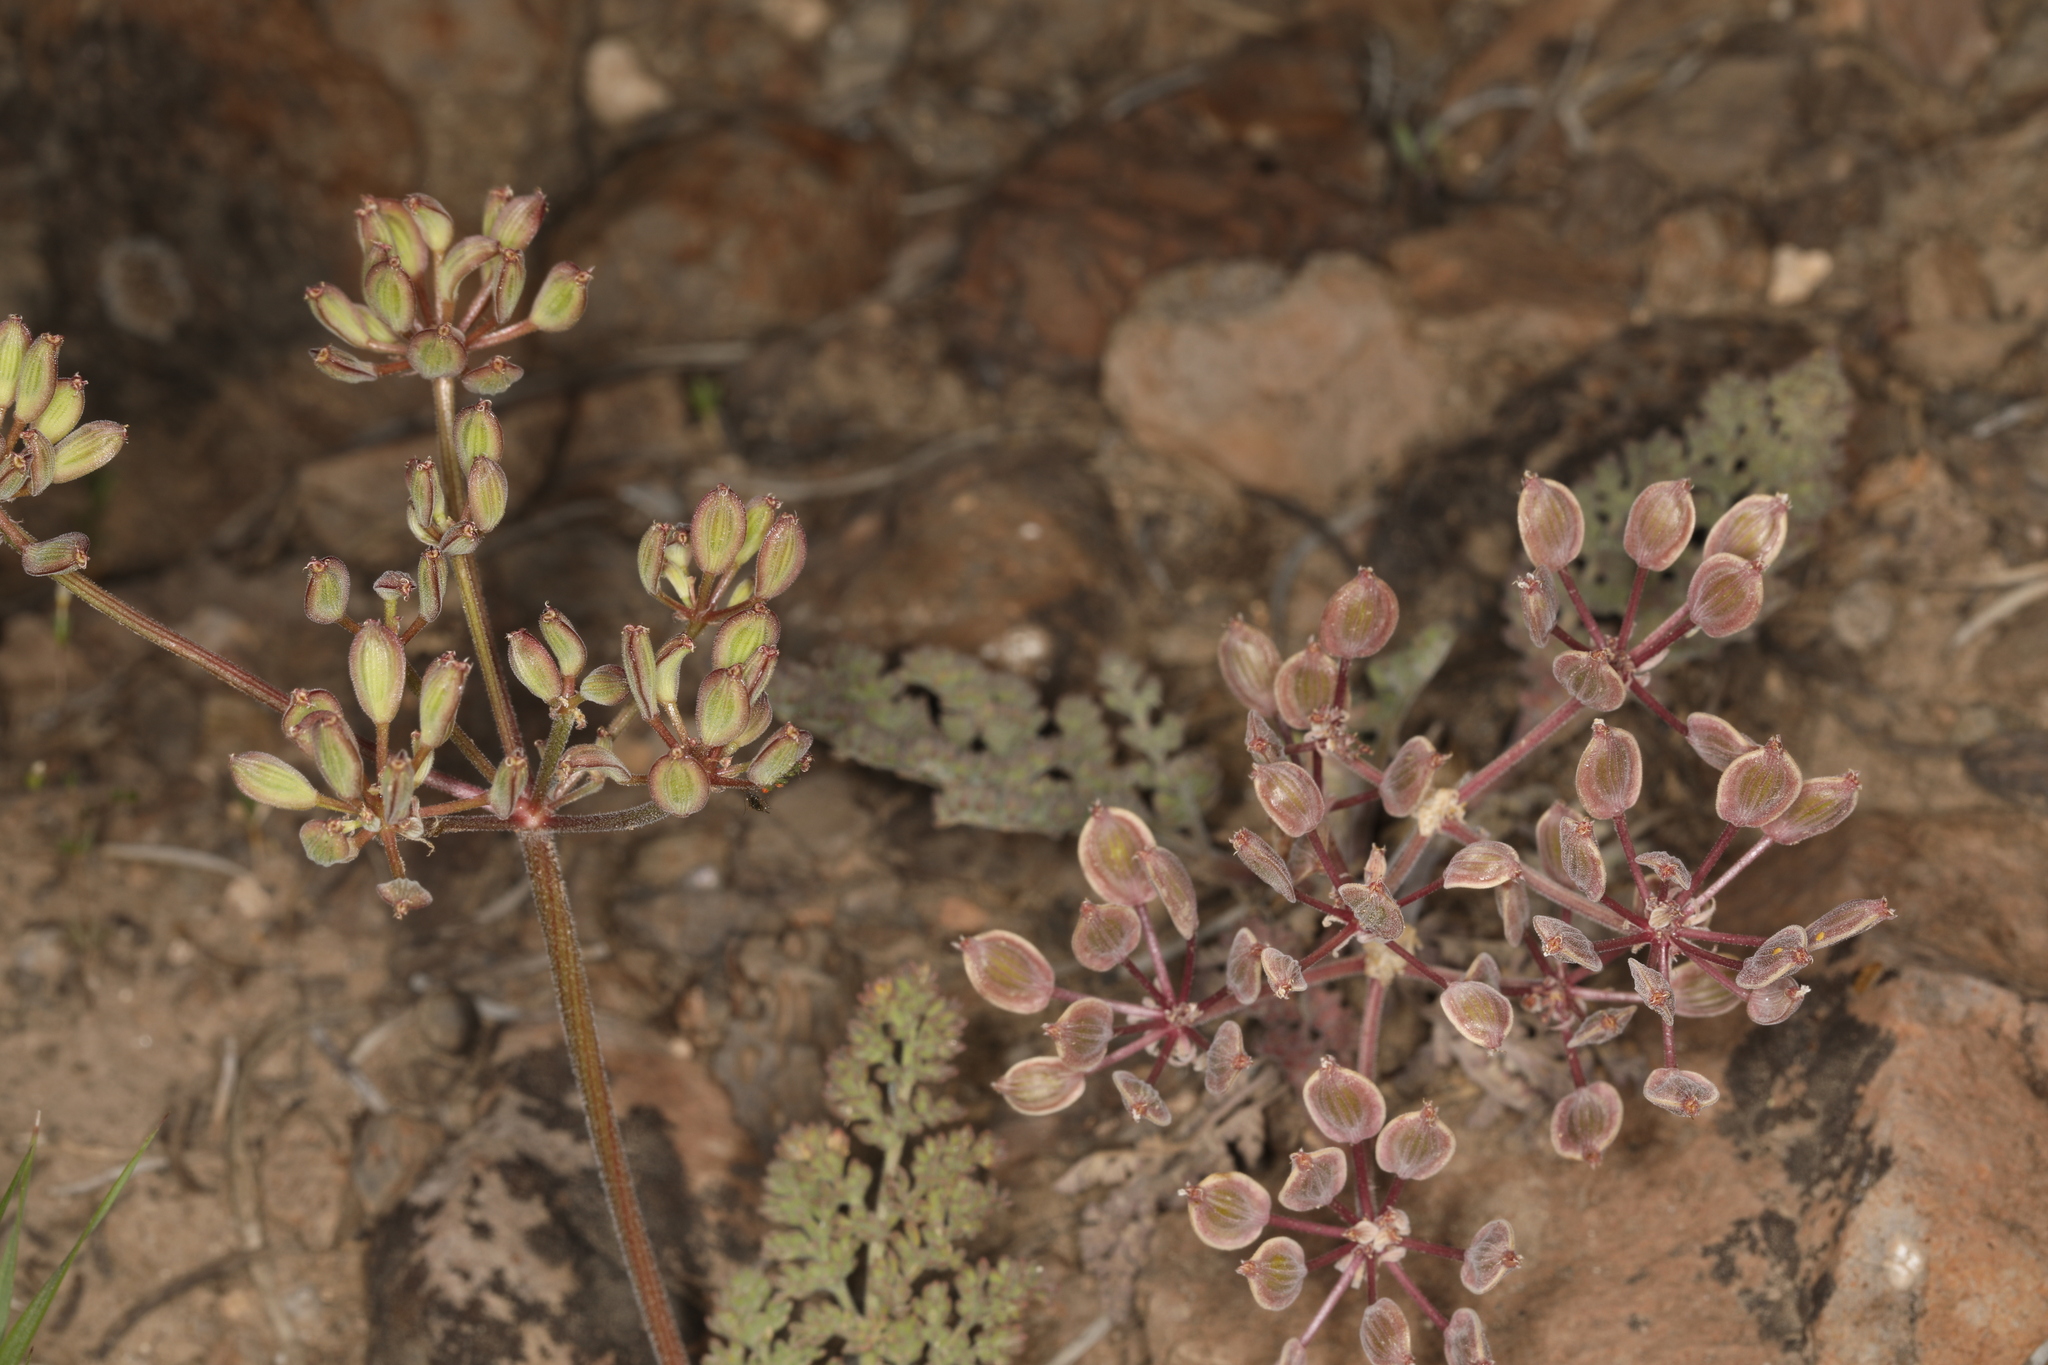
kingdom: Plantae
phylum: Tracheophyta
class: Magnoliopsida
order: Apiales
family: Apiaceae
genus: Lomatium
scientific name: Lomatium foeniculaceum
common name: Desert-parsley
